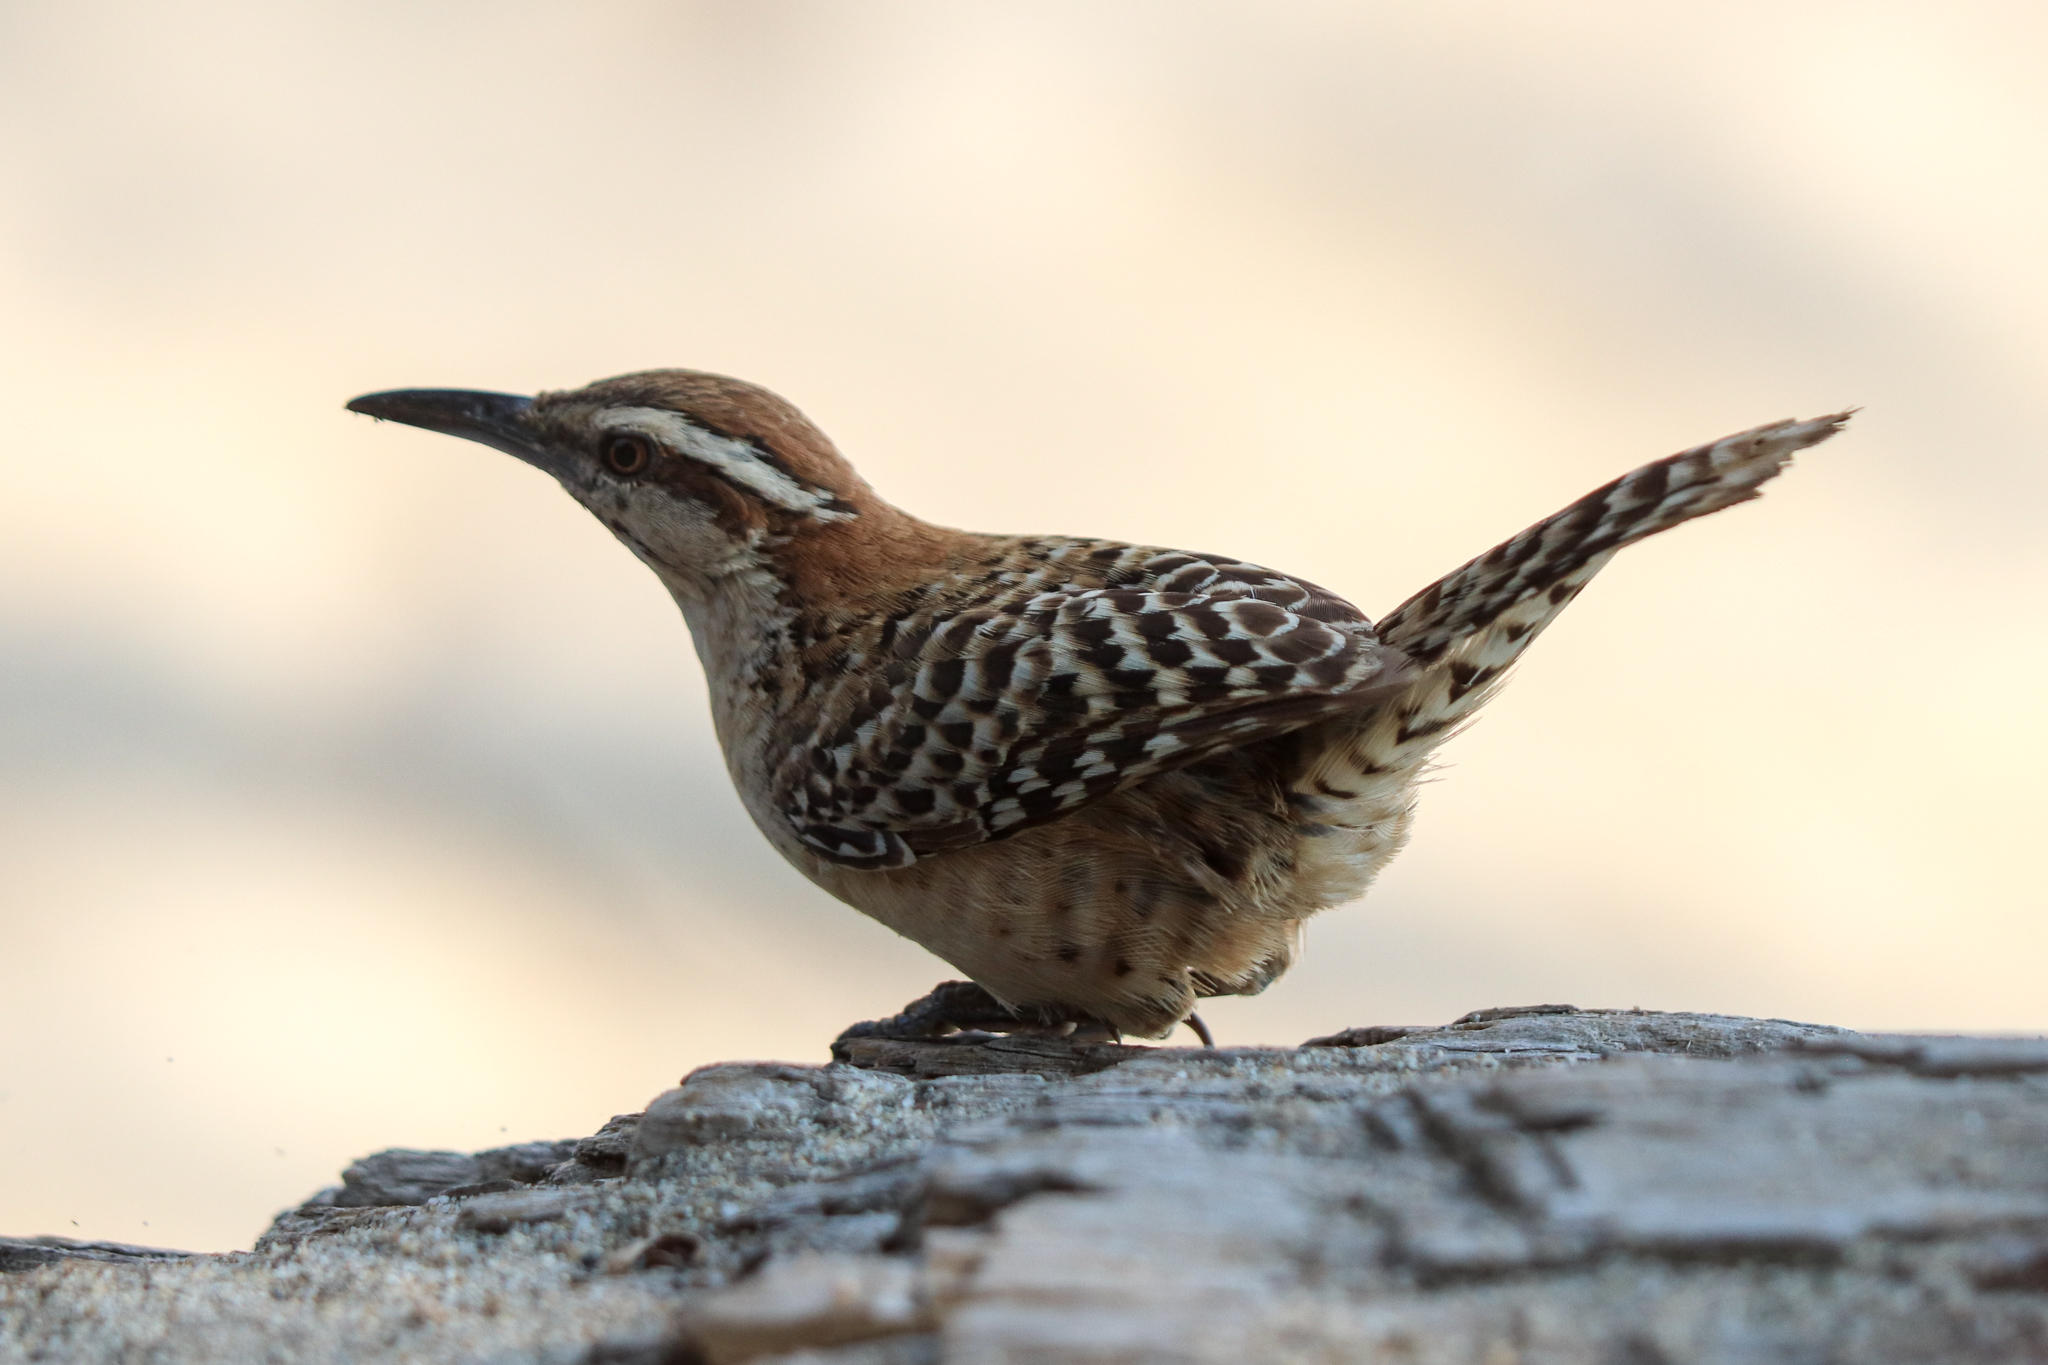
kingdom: Animalia
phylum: Chordata
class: Aves
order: Passeriformes
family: Troglodytidae
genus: Campylorhynchus
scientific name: Campylorhynchus rufinucha
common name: Rufous-naped wren
